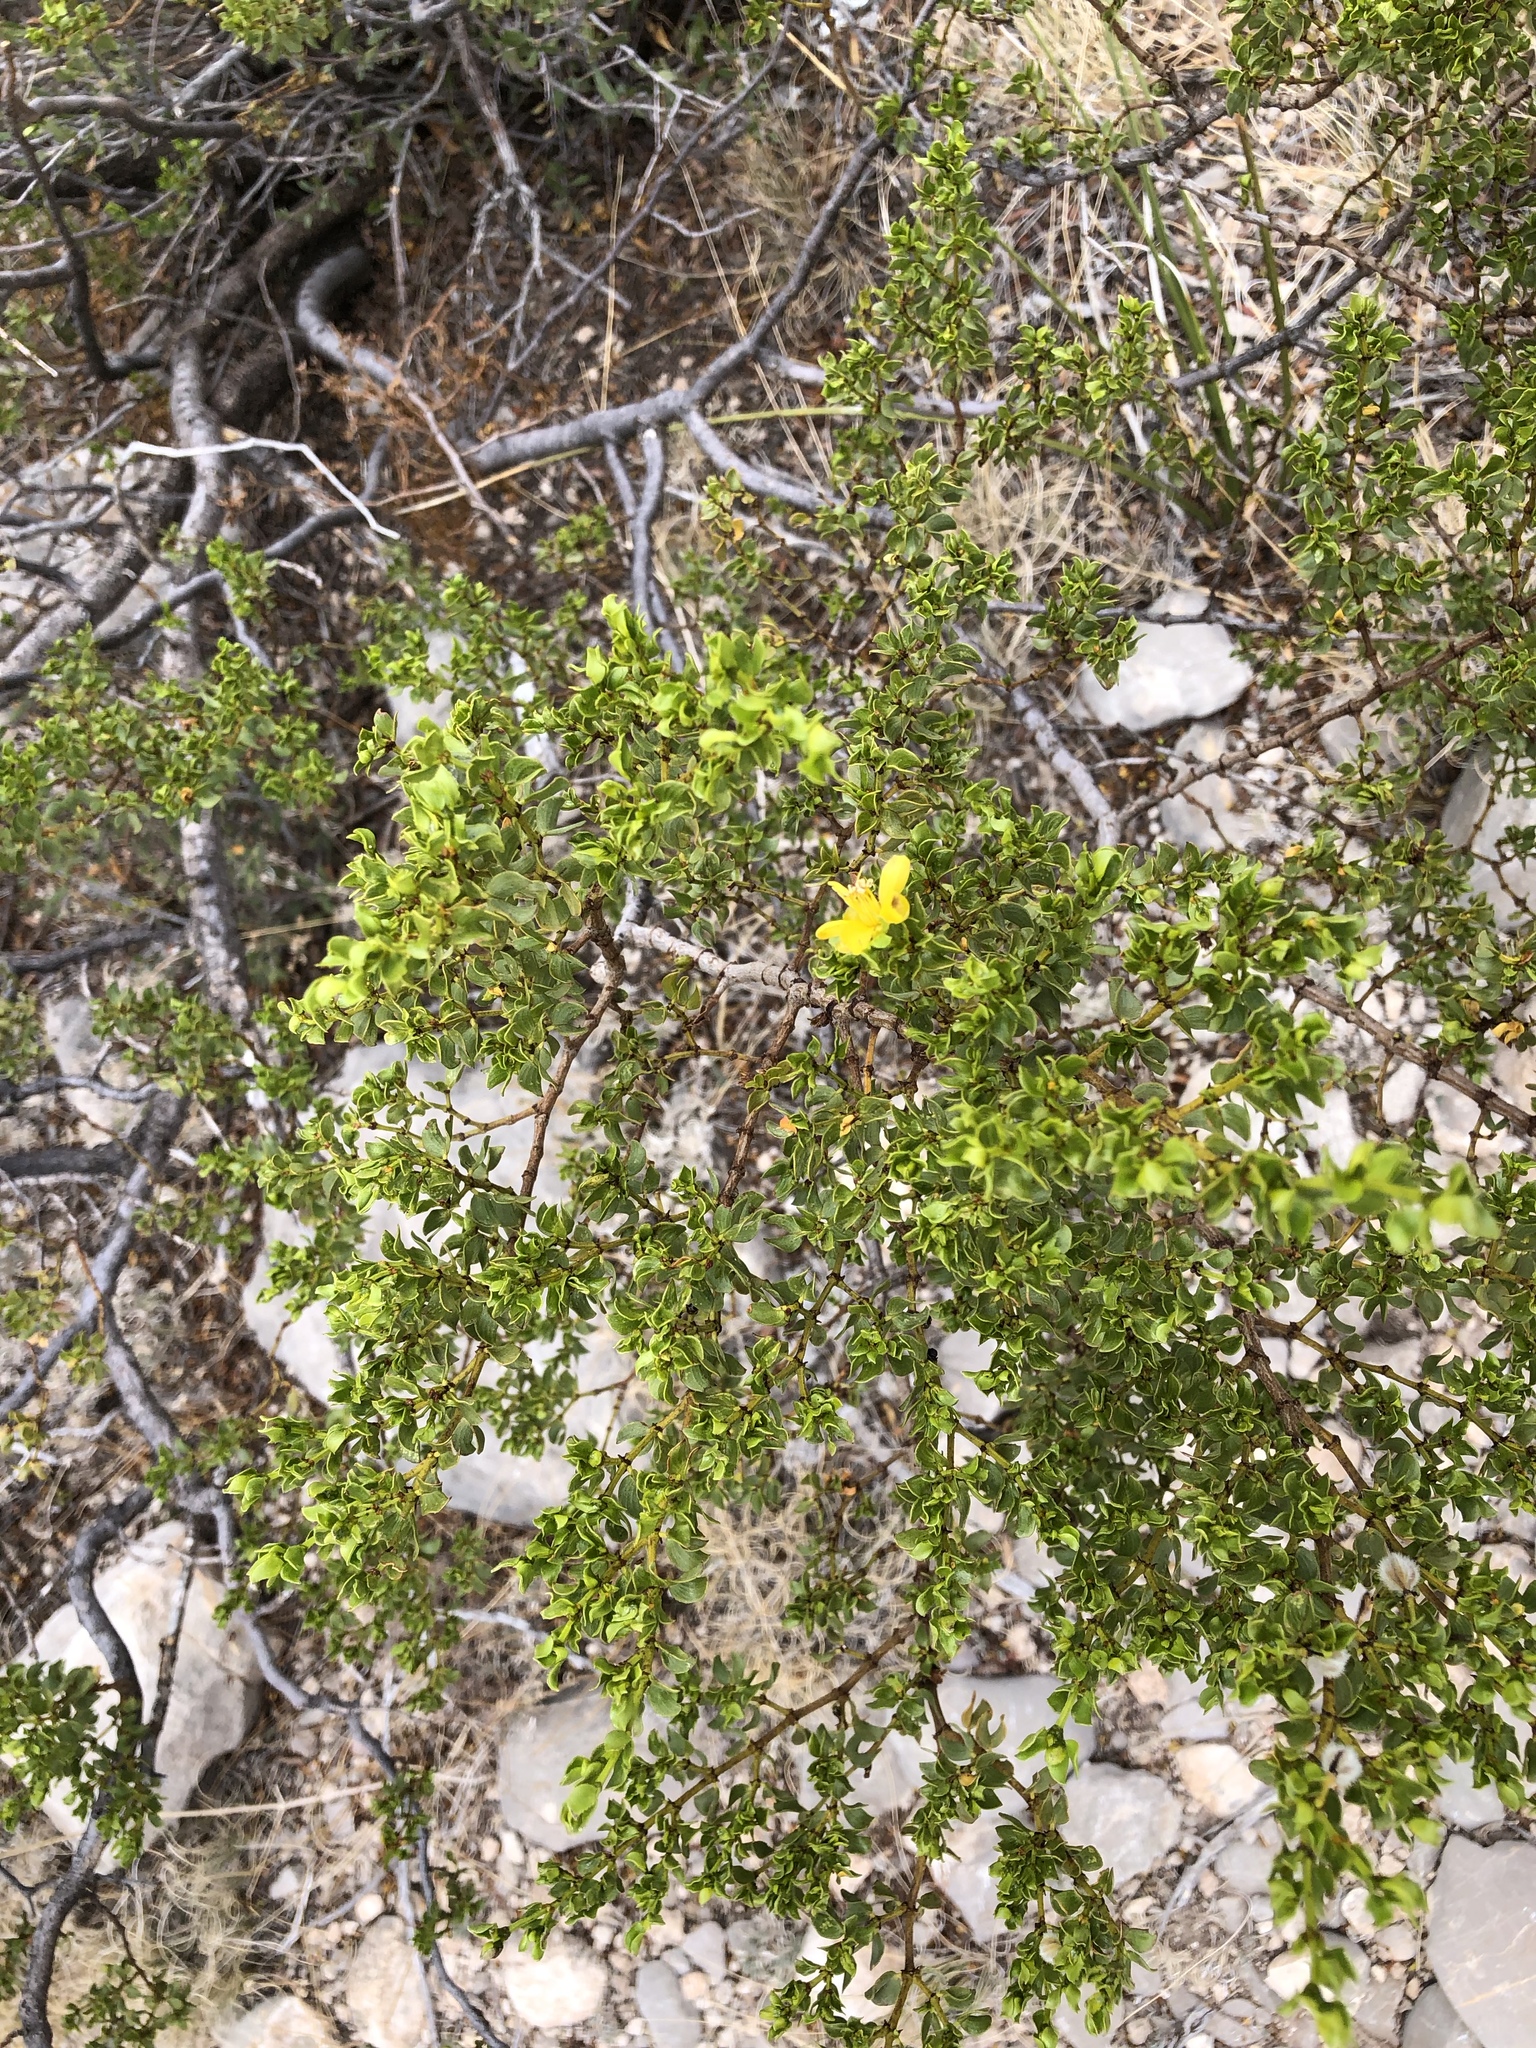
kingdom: Plantae
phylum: Tracheophyta
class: Magnoliopsida
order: Zygophyllales
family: Zygophyllaceae
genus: Larrea
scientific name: Larrea tridentata
